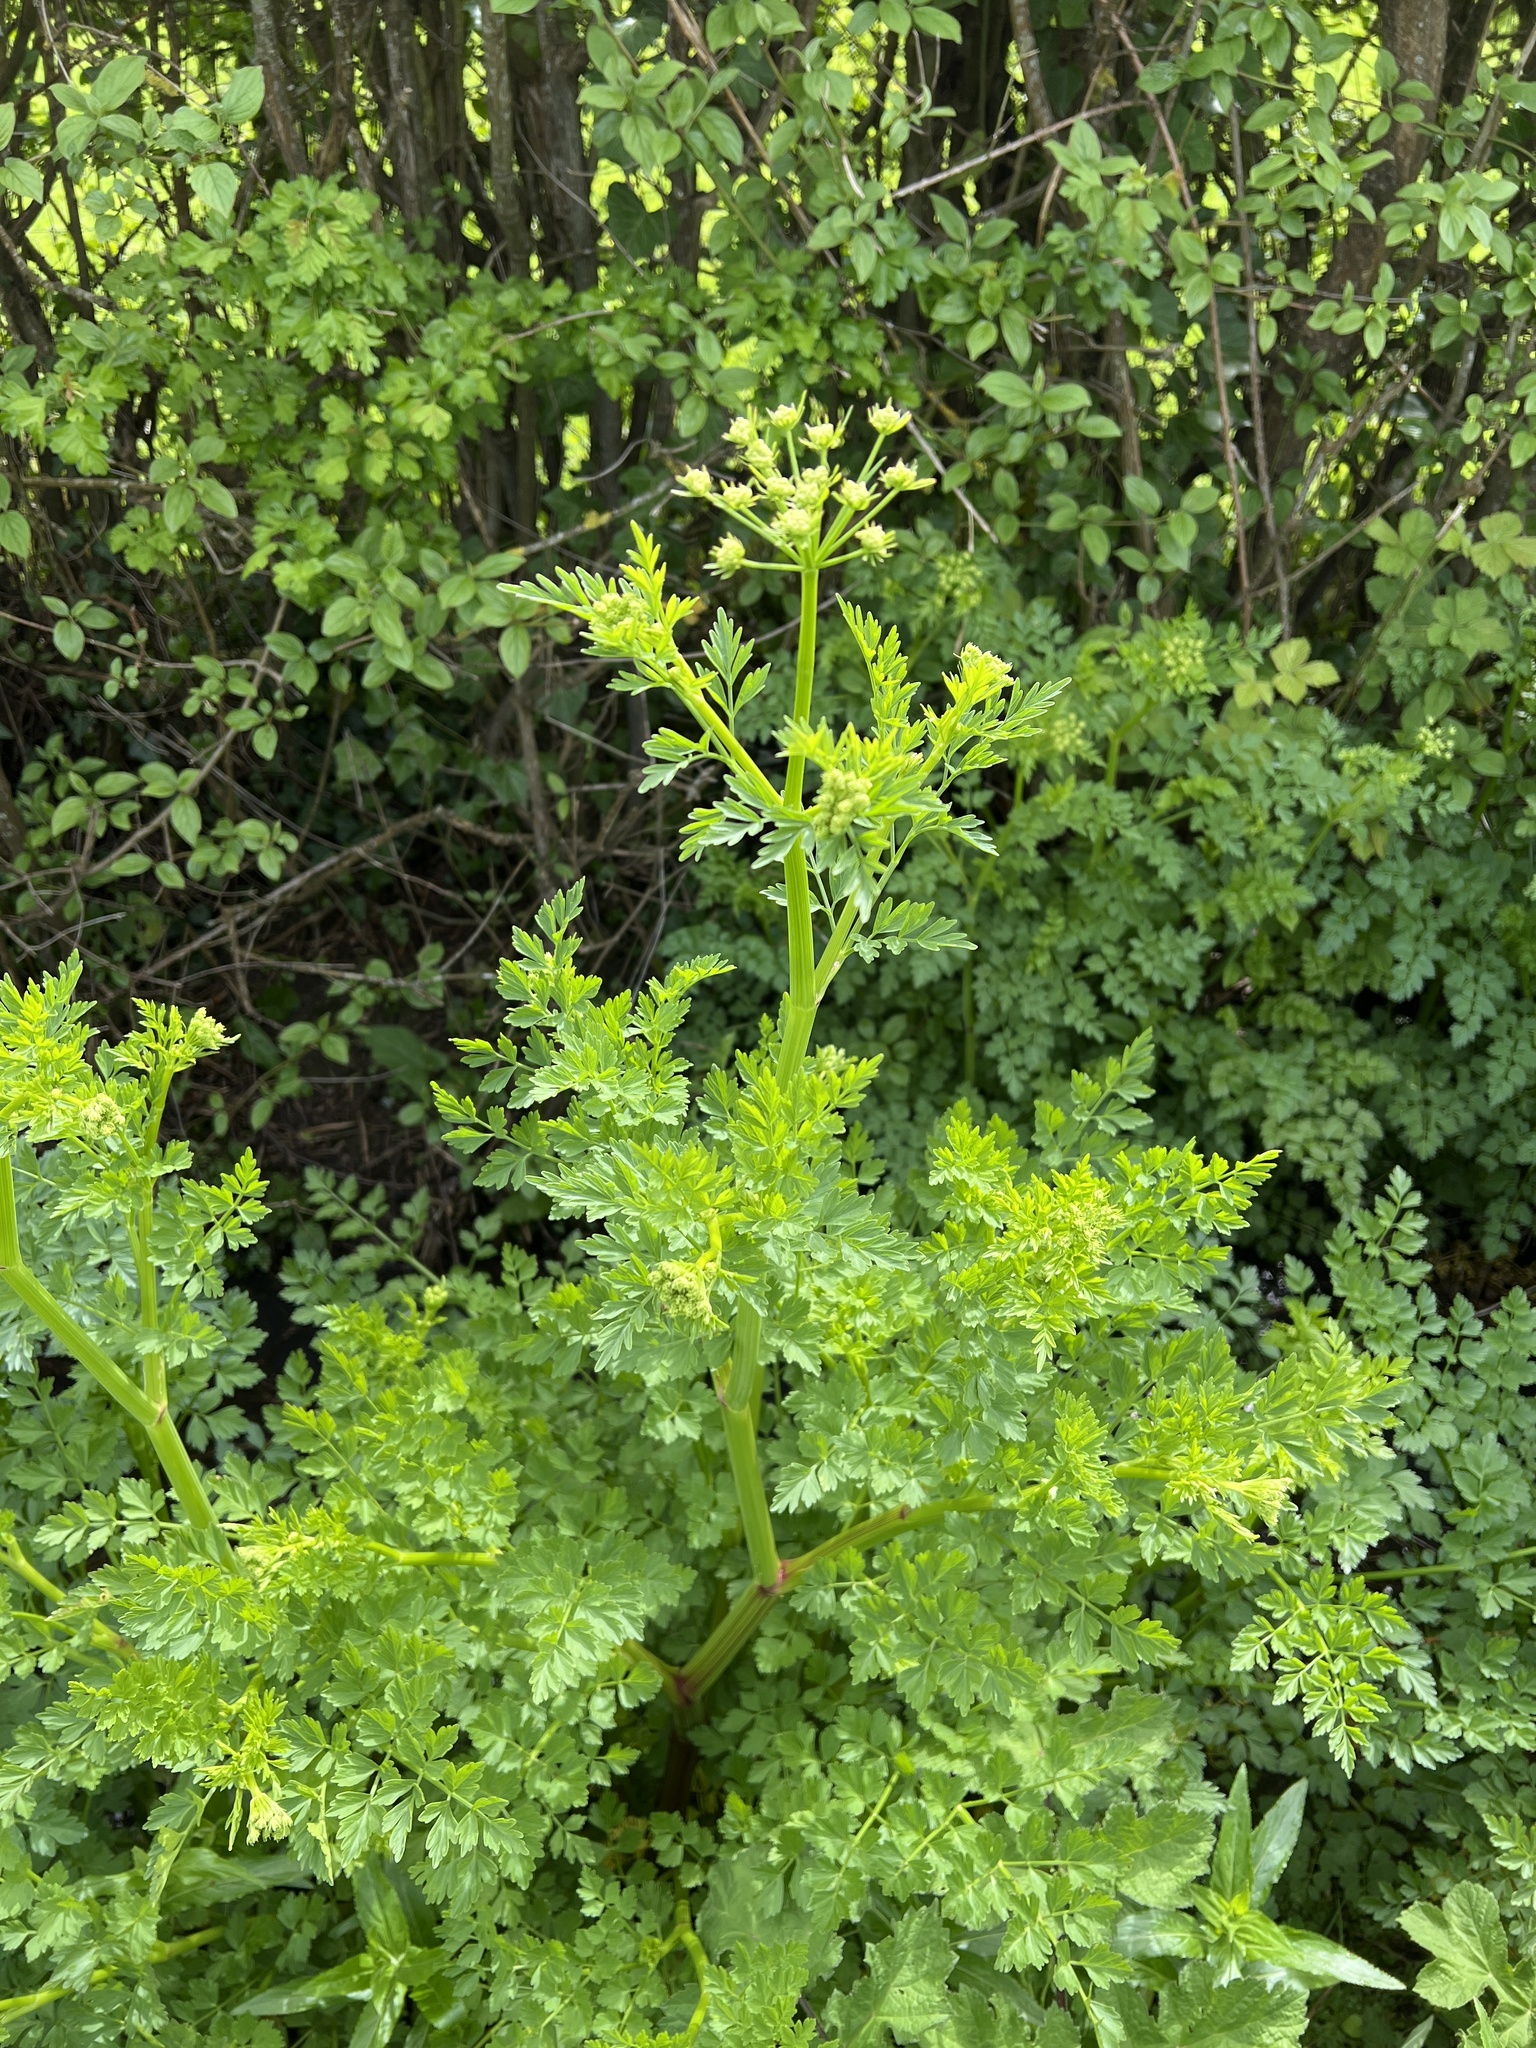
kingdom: Plantae
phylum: Tracheophyta
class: Magnoliopsida
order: Apiales
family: Apiaceae
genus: Oenanthe
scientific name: Oenanthe crocata
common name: Hemlock water-dropwort
